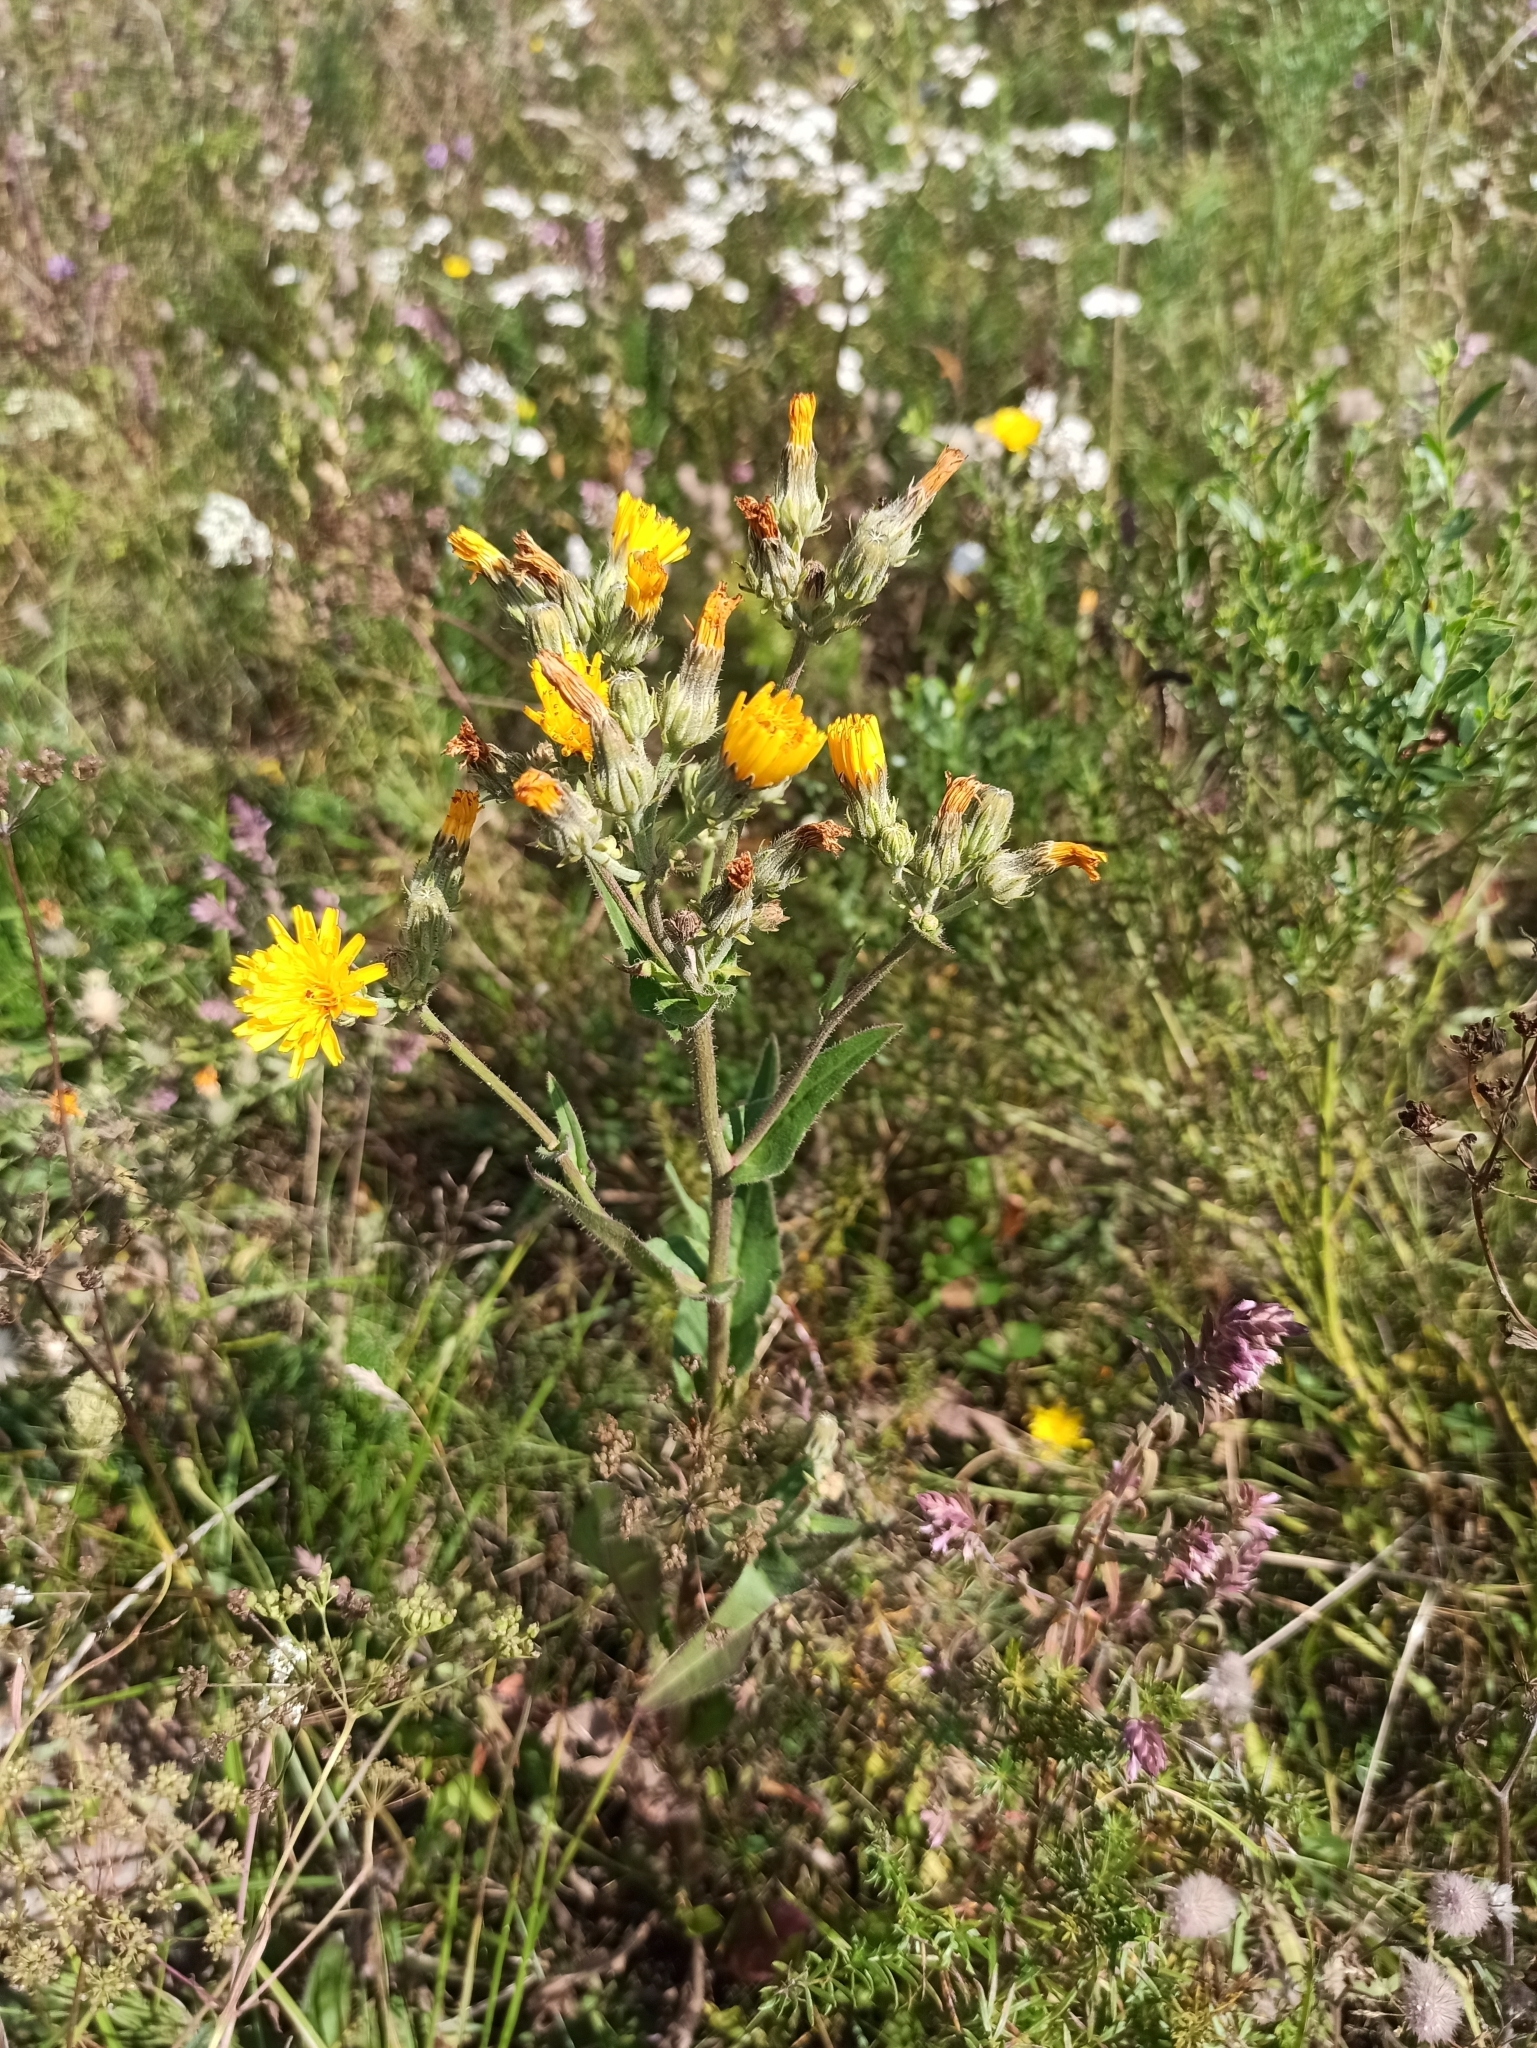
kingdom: Plantae
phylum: Tracheophyta
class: Magnoliopsida
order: Asterales
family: Asteraceae
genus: Picris
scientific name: Picris hieracioides
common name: Hawkweed oxtongue
